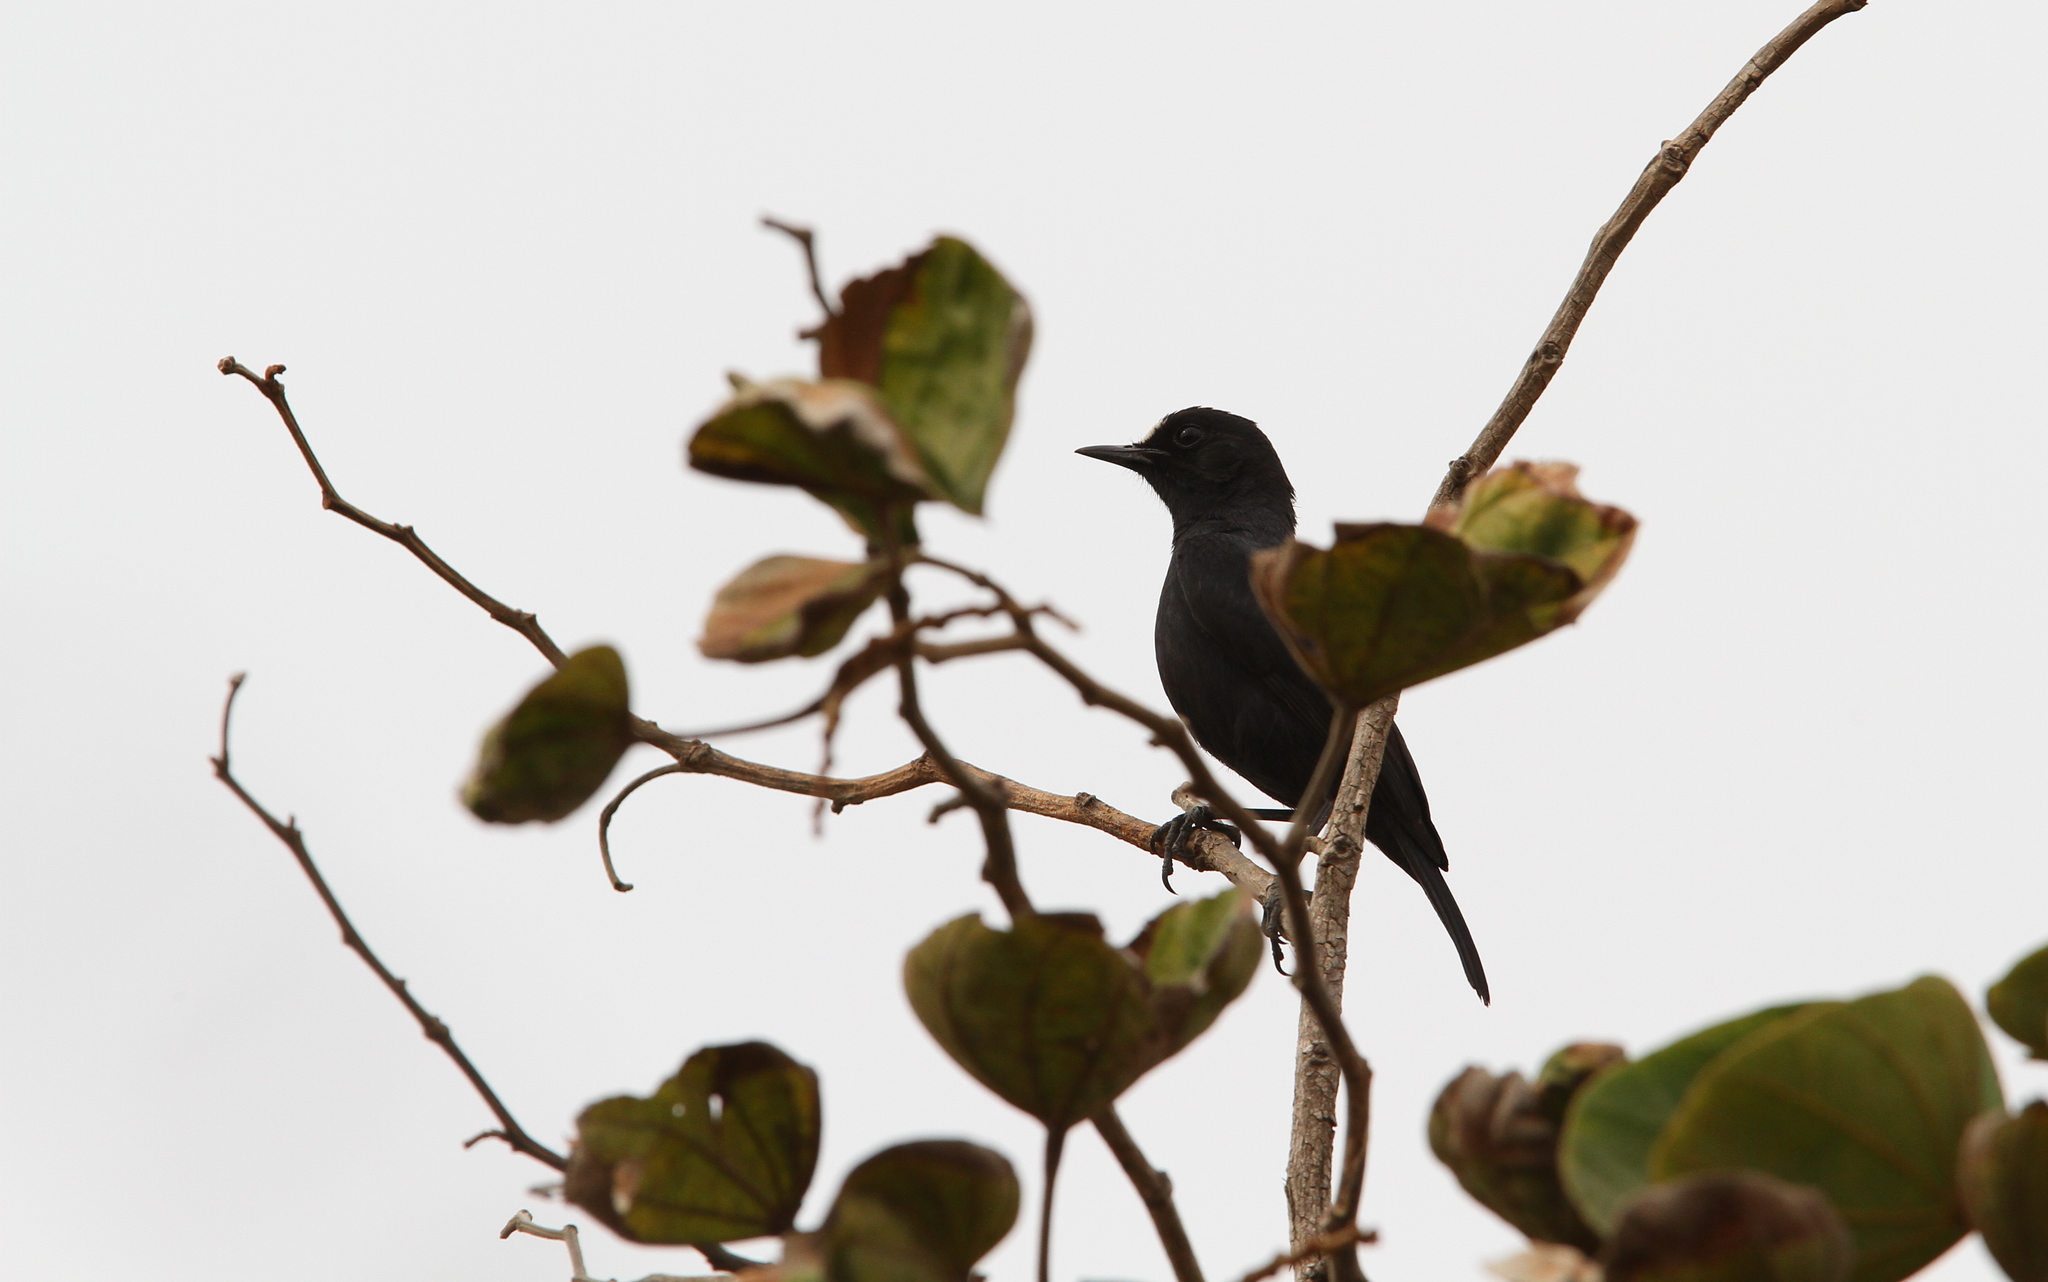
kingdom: Animalia
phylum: Chordata
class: Aves
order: Passeriformes
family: Muscicapidae
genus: Pentholaea
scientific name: Pentholaea albifrons
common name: White-fronted black chat
